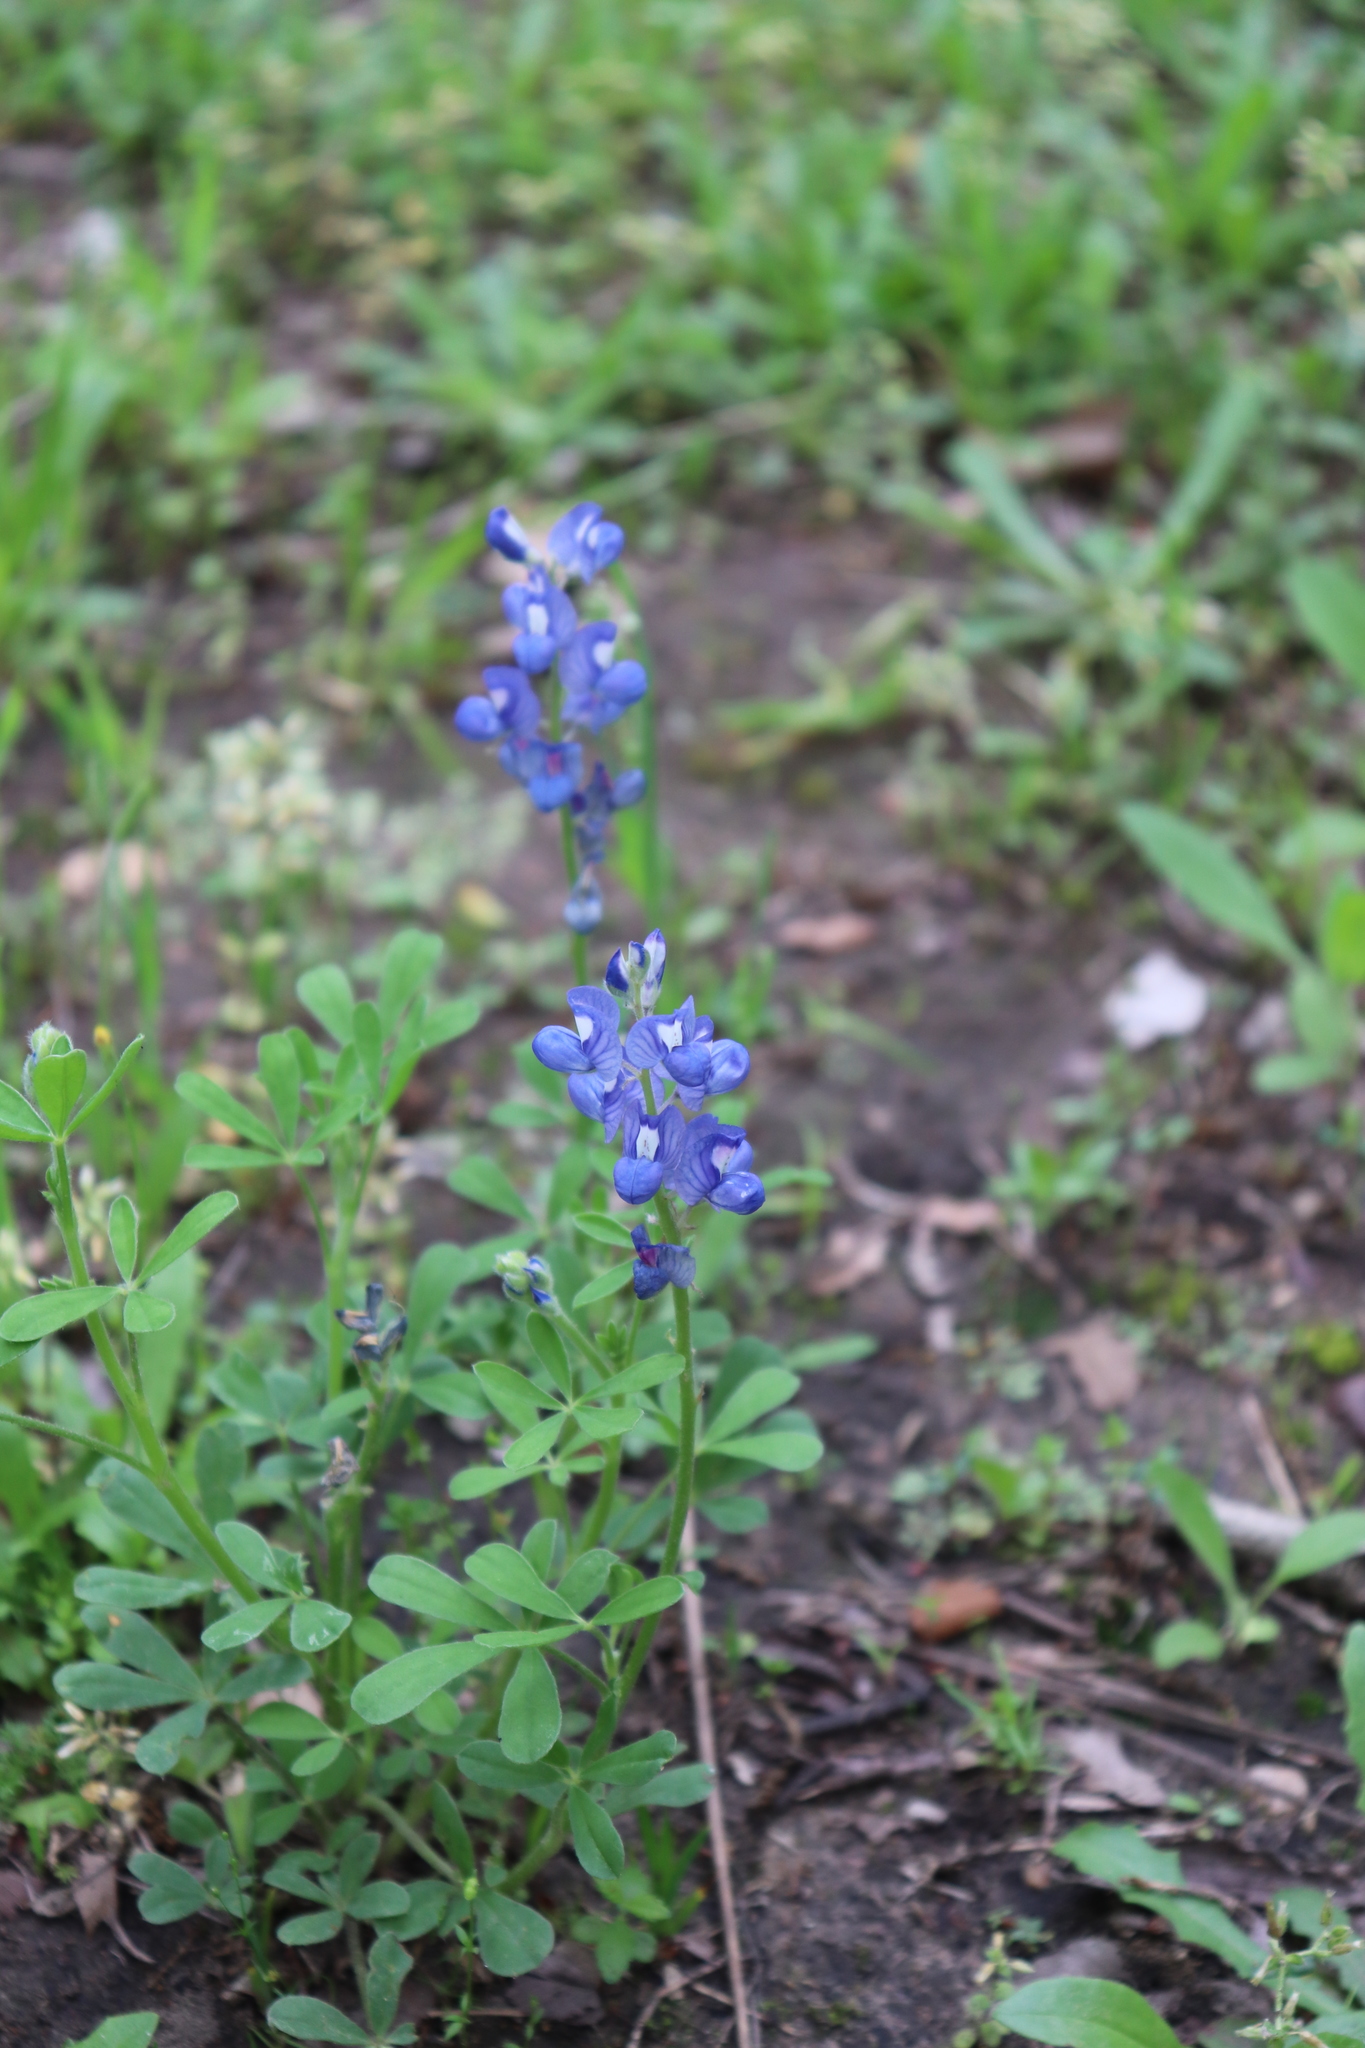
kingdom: Plantae
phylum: Tracheophyta
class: Magnoliopsida
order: Fabales
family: Fabaceae
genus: Lupinus
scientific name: Lupinus subcarnosus
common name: Texas bluebonnet
